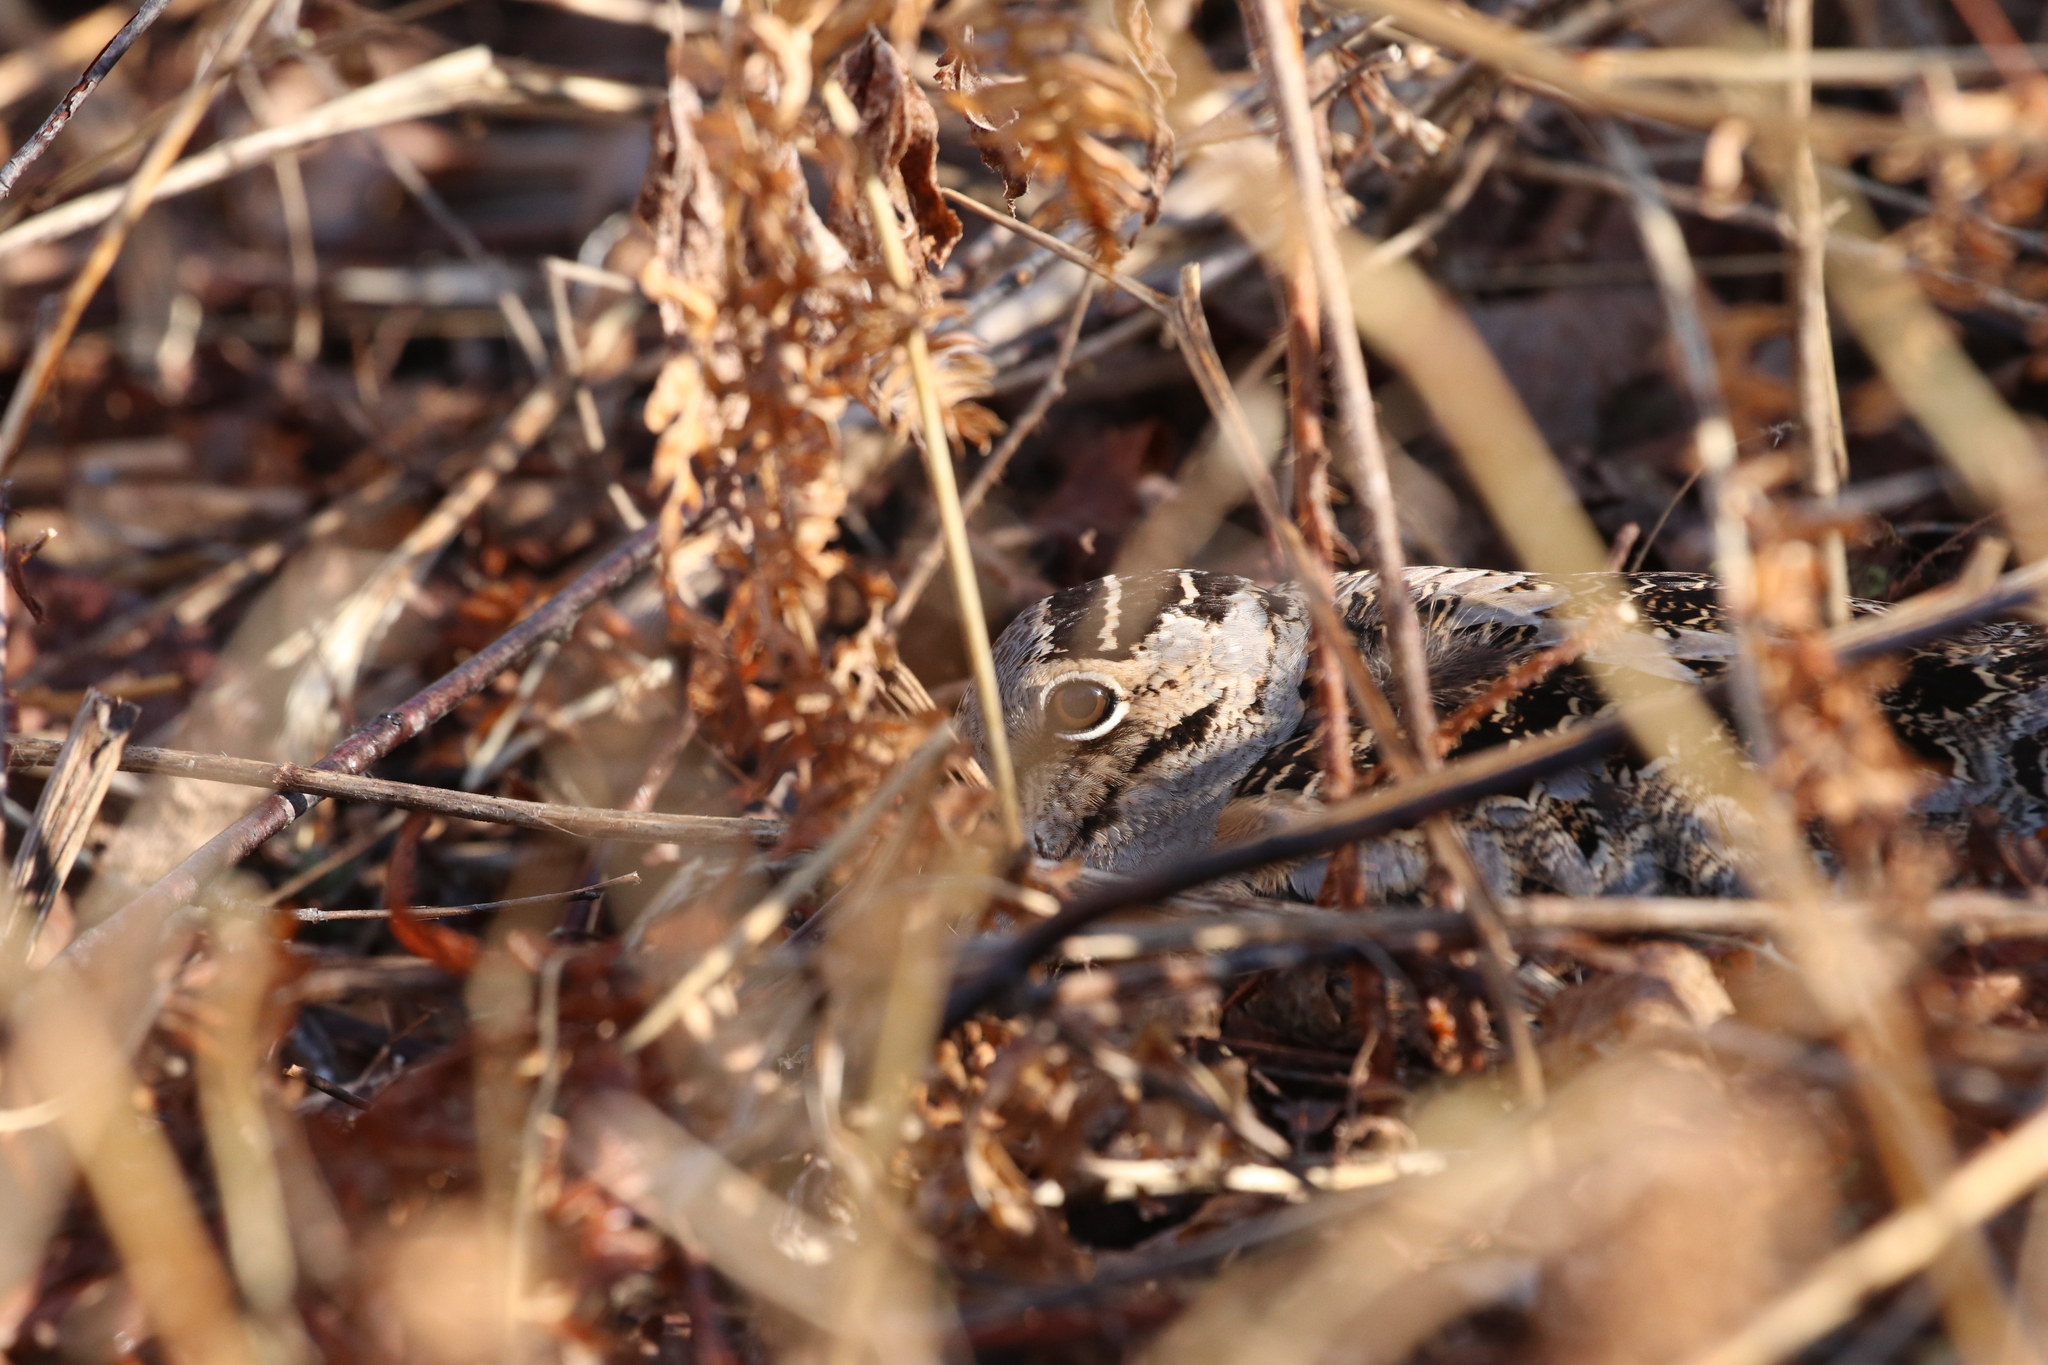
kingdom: Animalia
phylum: Chordata
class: Aves
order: Charadriiformes
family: Scolopacidae
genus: Scolopax
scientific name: Scolopax minor
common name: American woodcock
